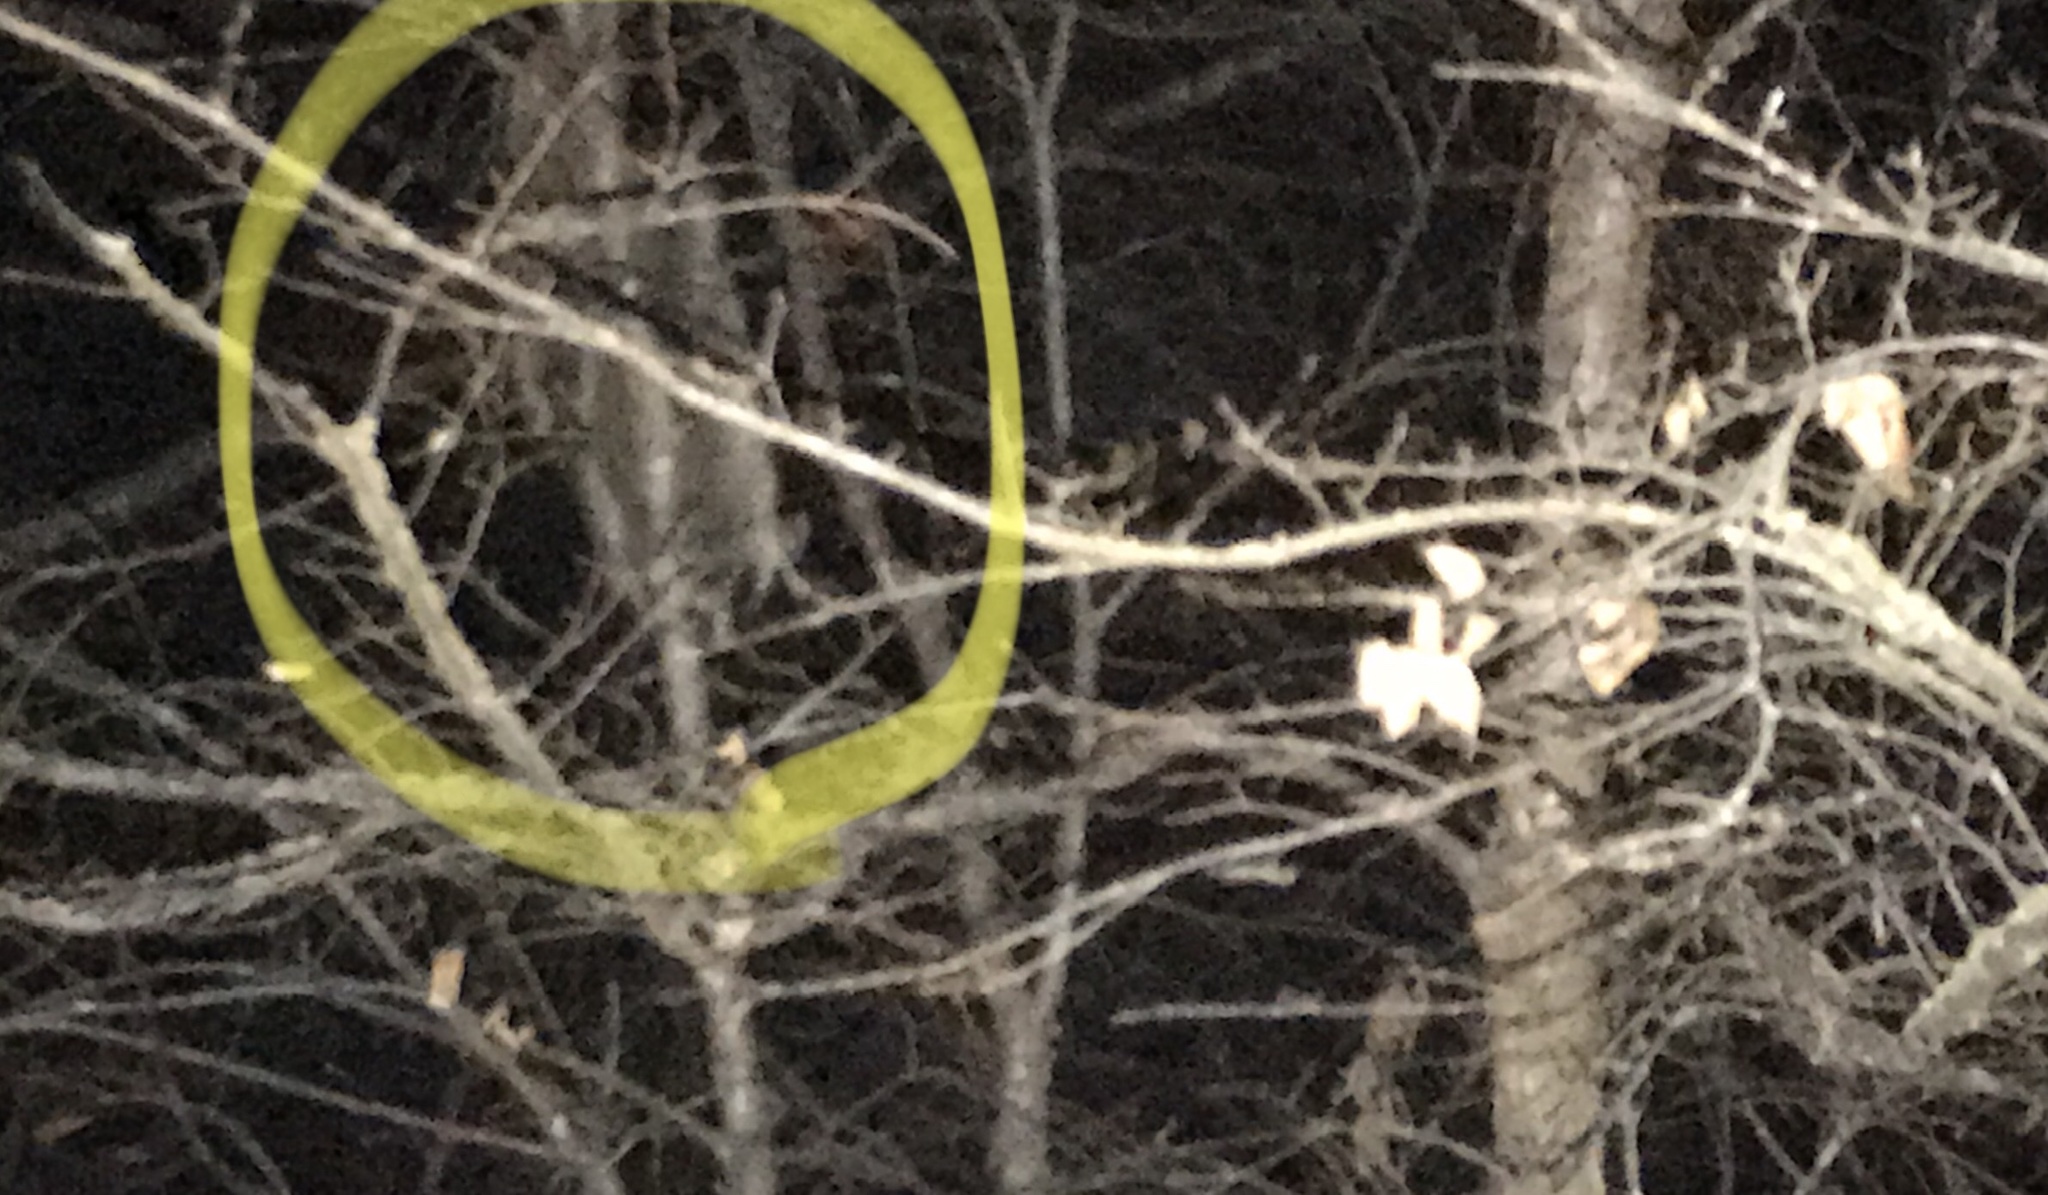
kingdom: Animalia
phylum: Chordata
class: Mammalia
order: Carnivora
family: Procyonidae
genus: Procyon
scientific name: Procyon lotor
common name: Raccoon
